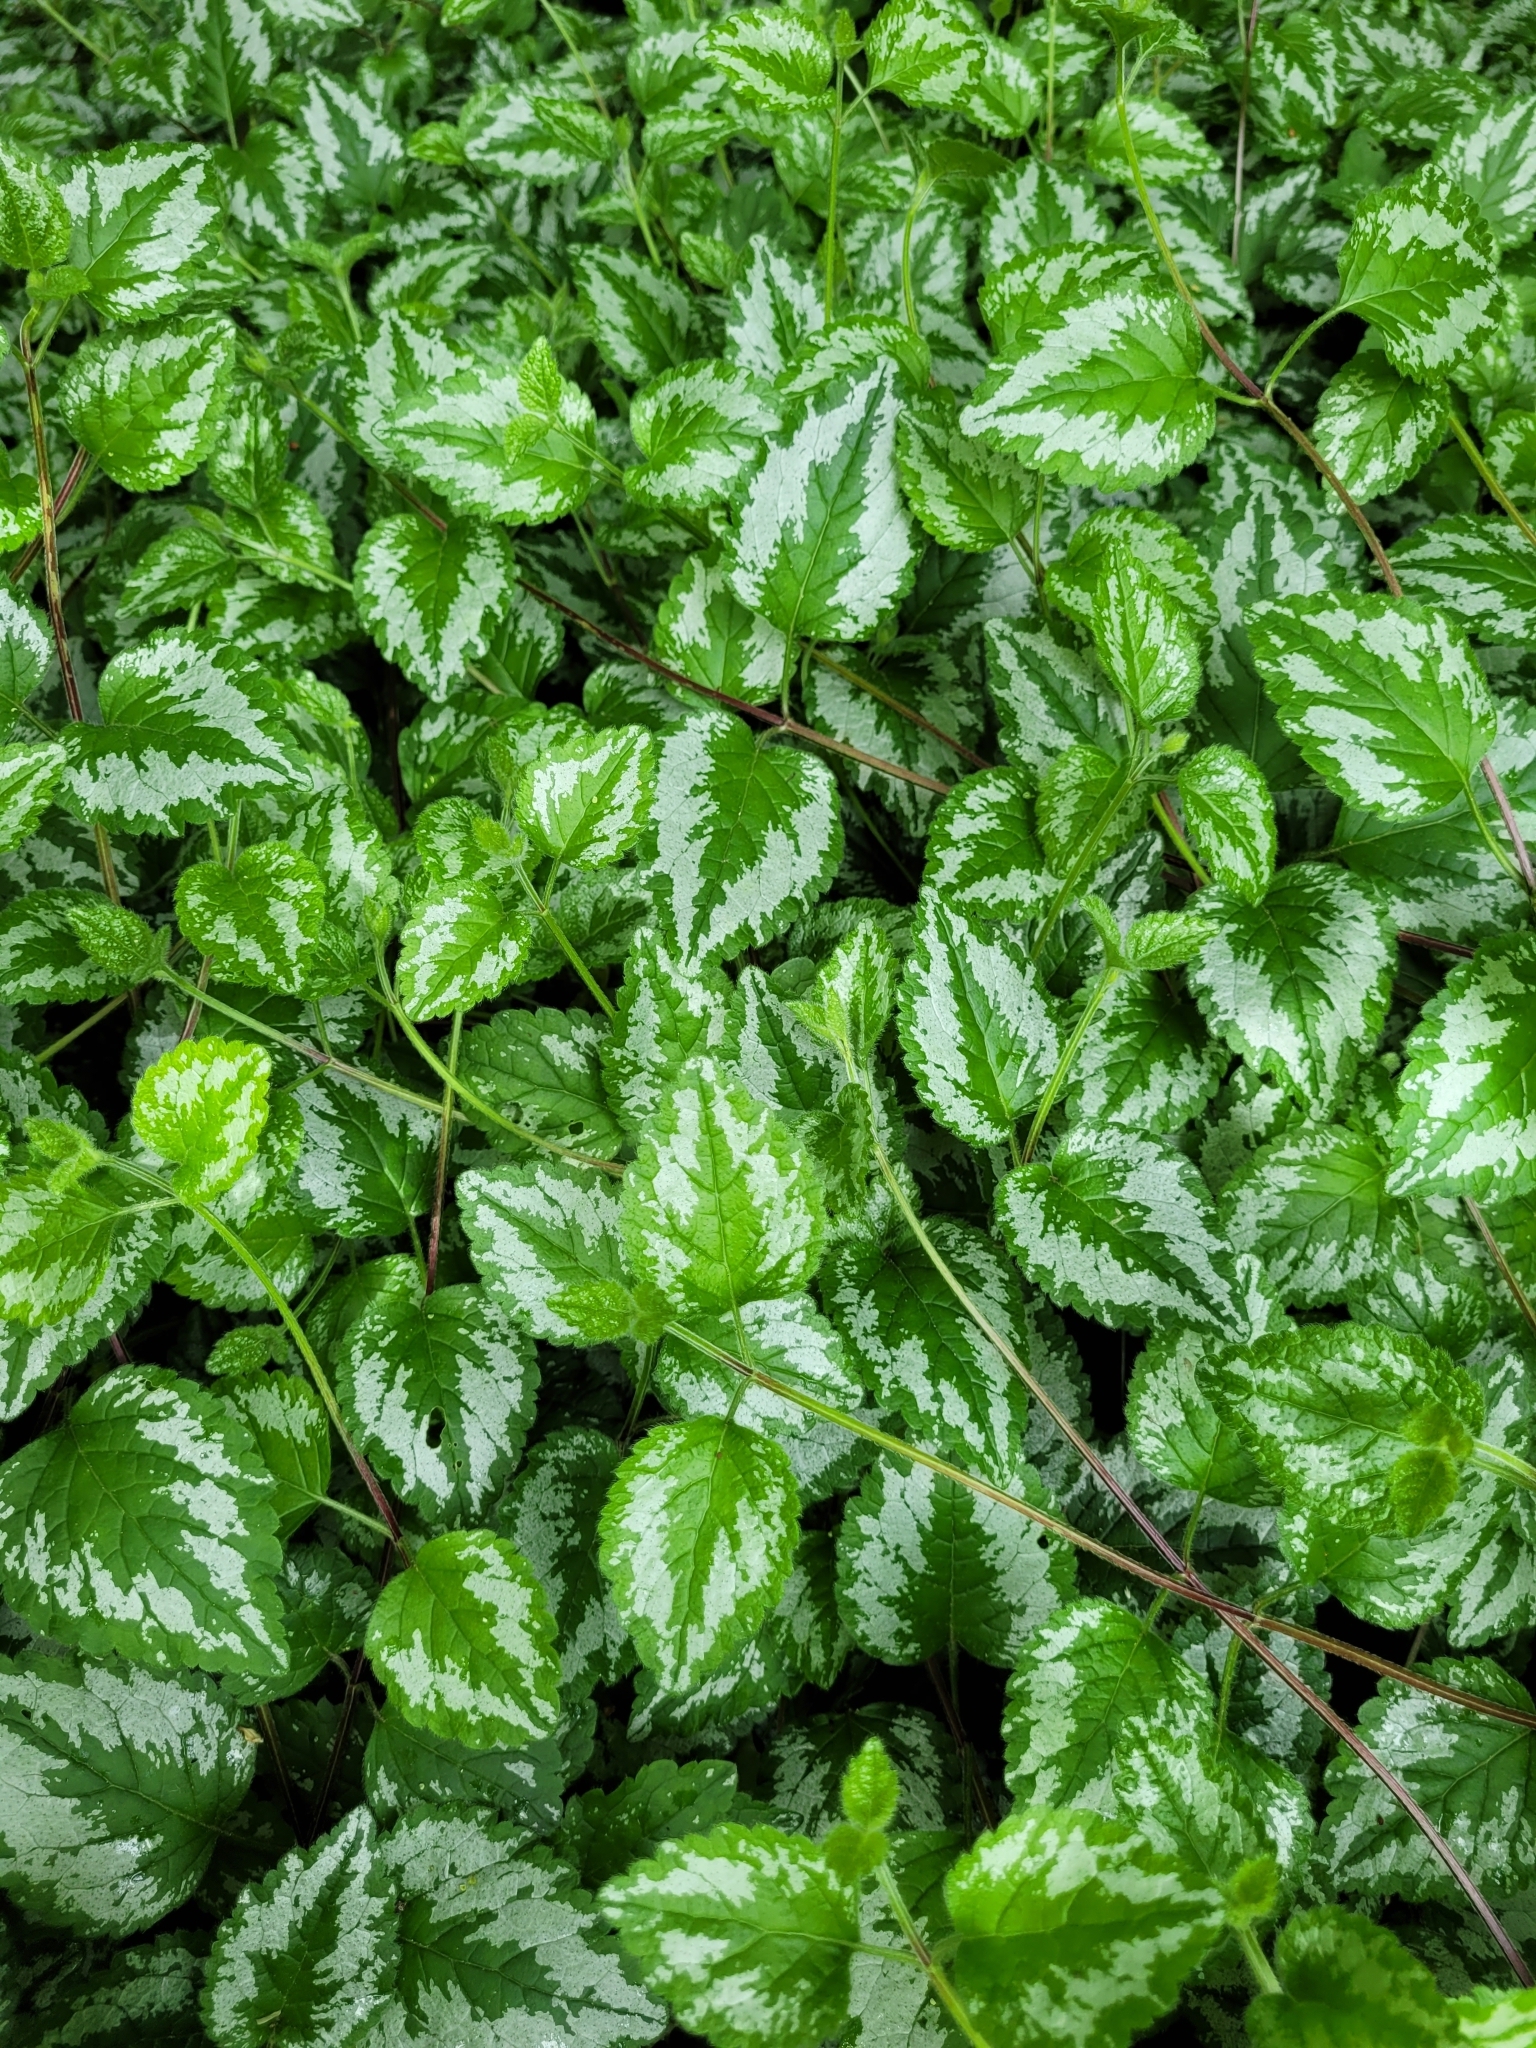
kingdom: Plantae
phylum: Tracheophyta
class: Magnoliopsida
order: Lamiales
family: Lamiaceae
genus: Lamium
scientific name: Lamium galeobdolon
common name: Yellow archangel
